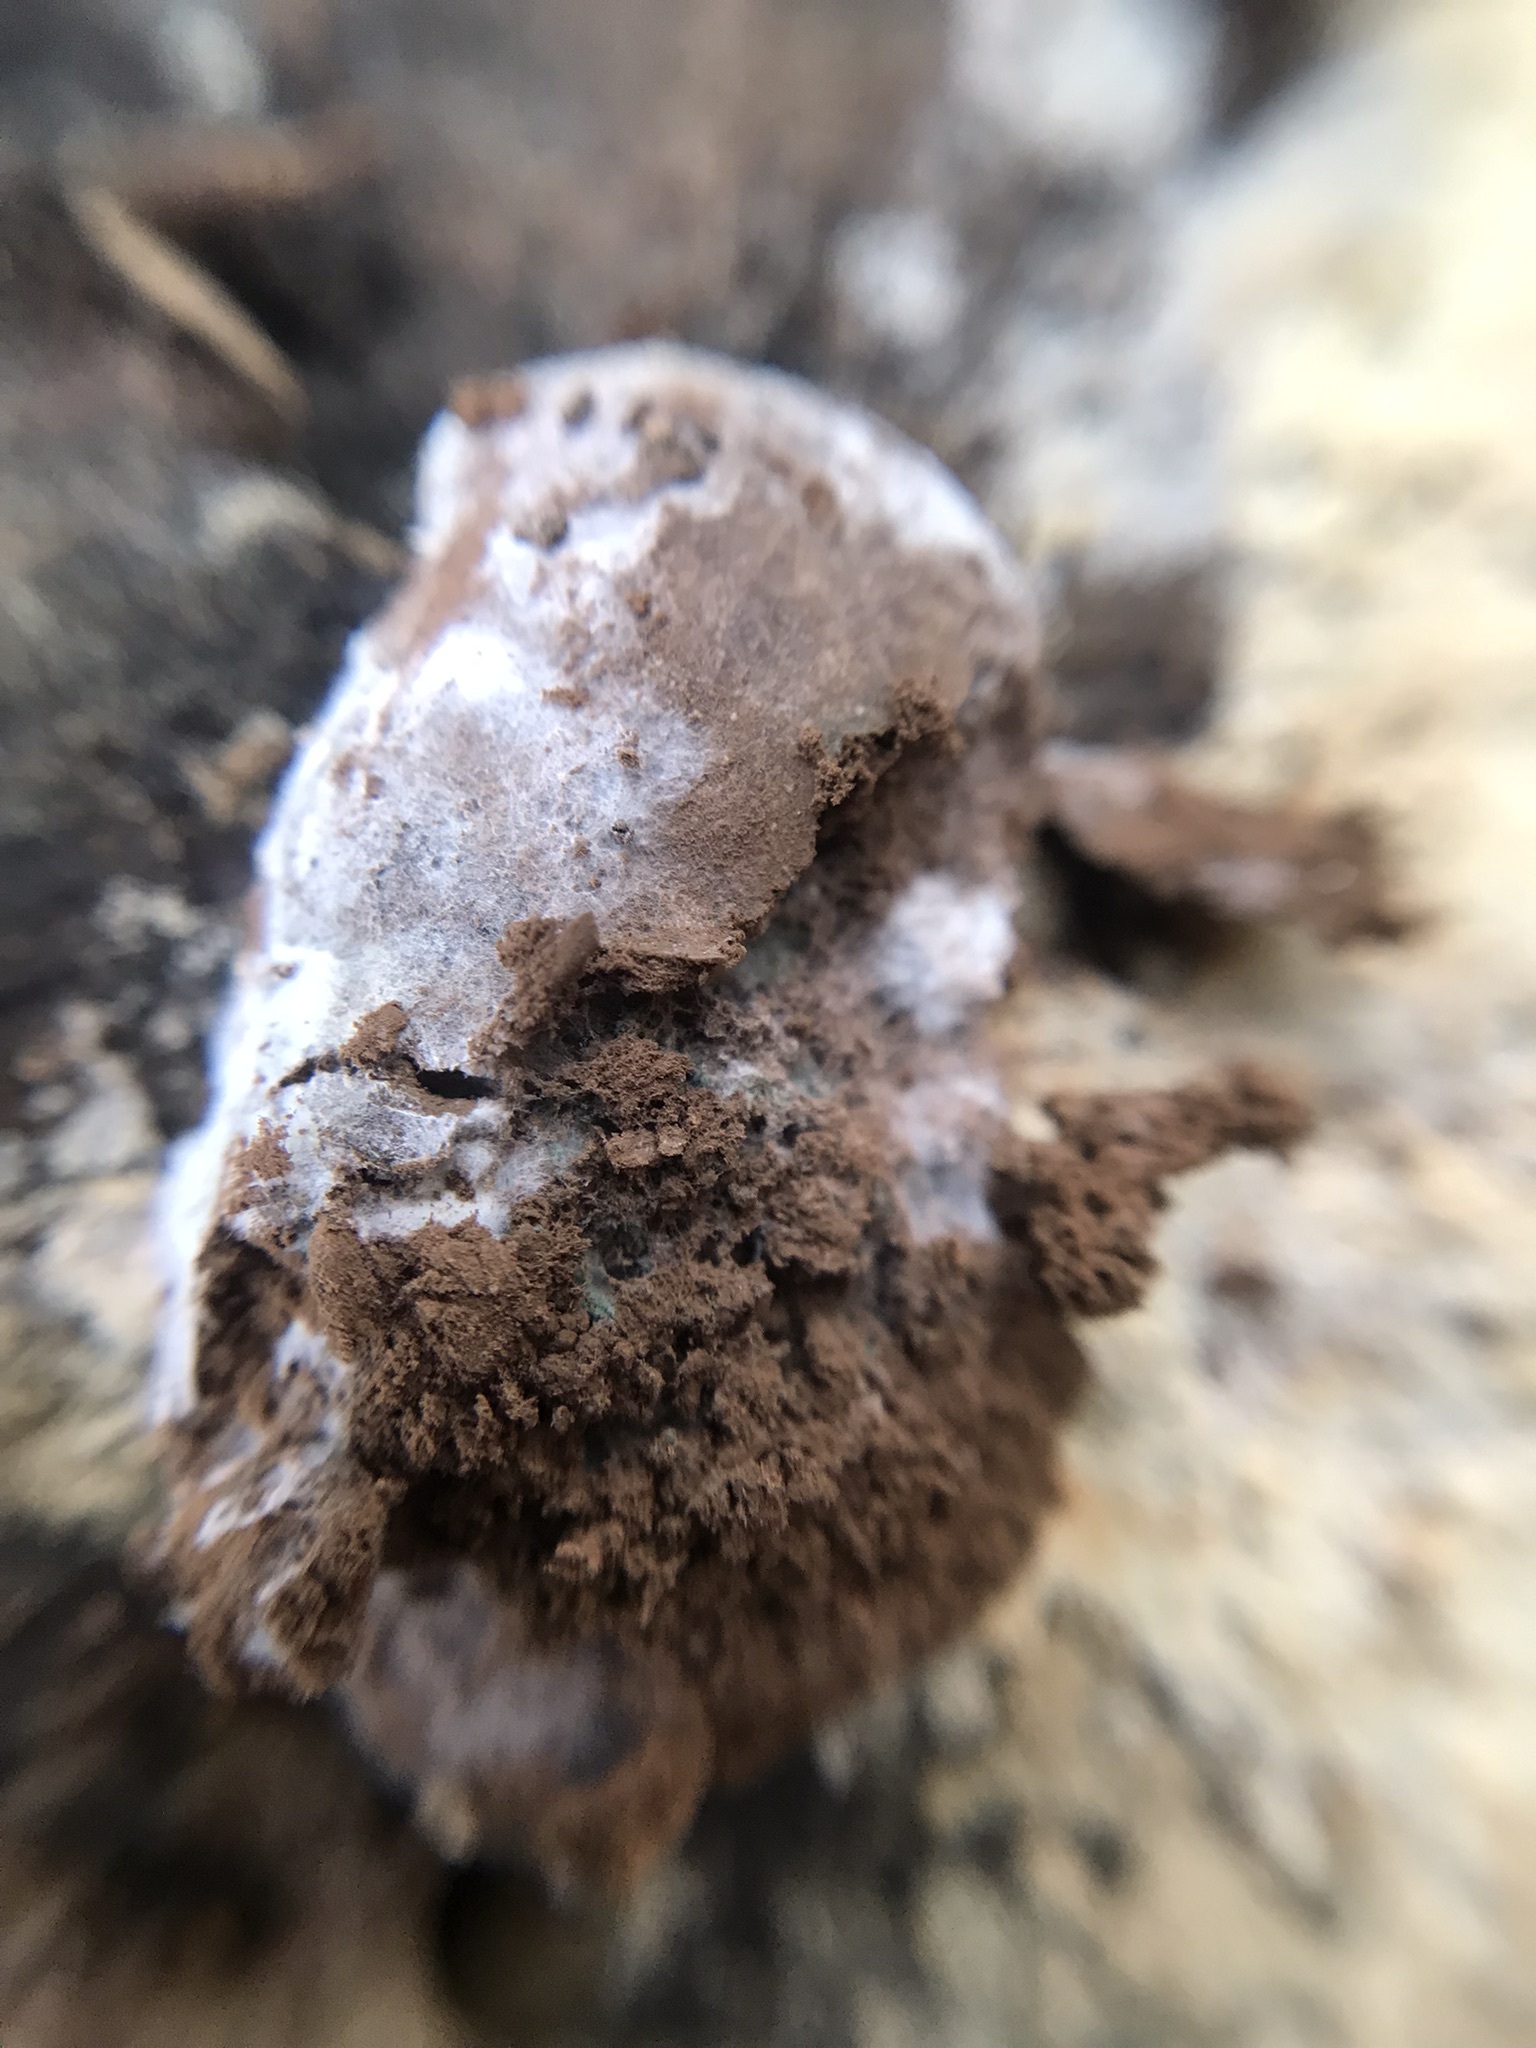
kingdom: Protozoa
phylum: Mycetozoa
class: Myxomycetes
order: Cribrariales
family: Tubiferaceae
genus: Reticularia
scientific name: Reticularia lycoperdon
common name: False puffball
